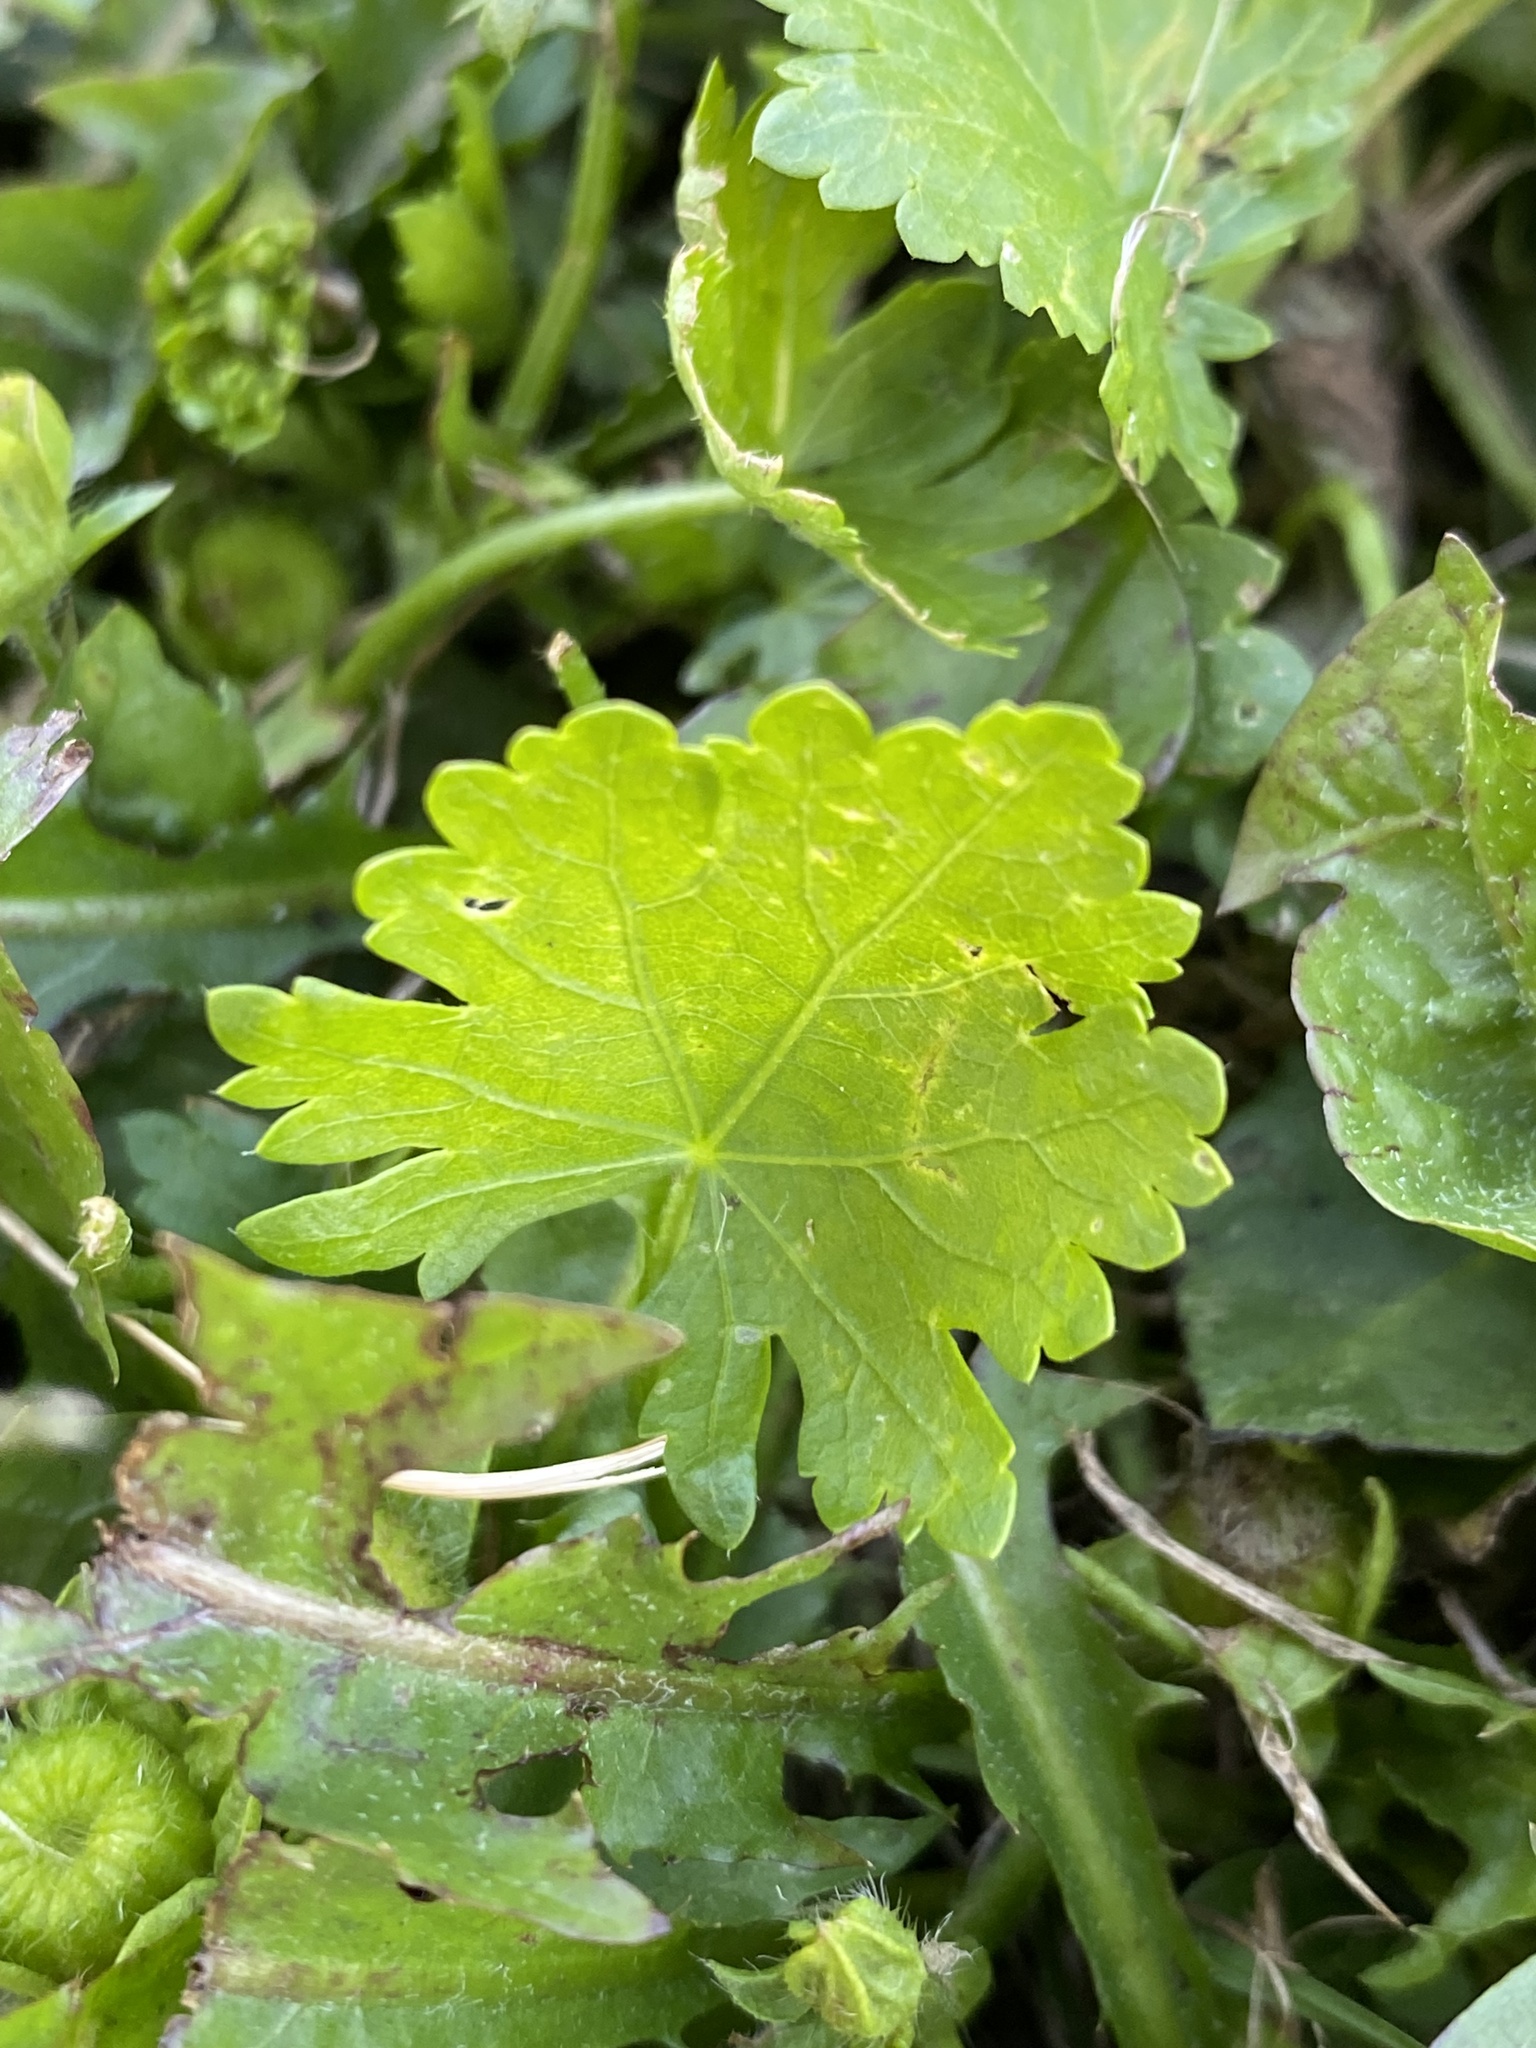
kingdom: Plantae
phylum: Tracheophyta
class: Magnoliopsida
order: Malvales
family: Malvaceae
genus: Modiola
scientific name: Modiola caroliniana
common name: Carolina bristlemallow
